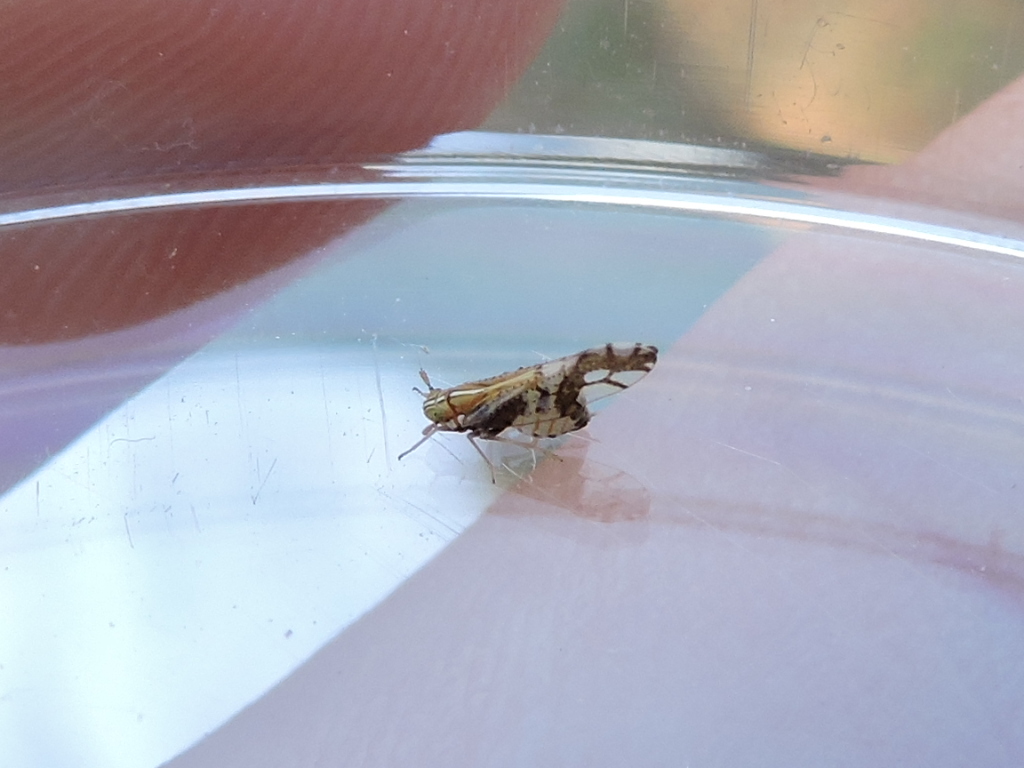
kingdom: Animalia
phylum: Arthropoda
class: Insecta
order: Hemiptera
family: Delphacidae
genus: Liburniella
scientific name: Liburniella ornata
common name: Ornate planthopper
